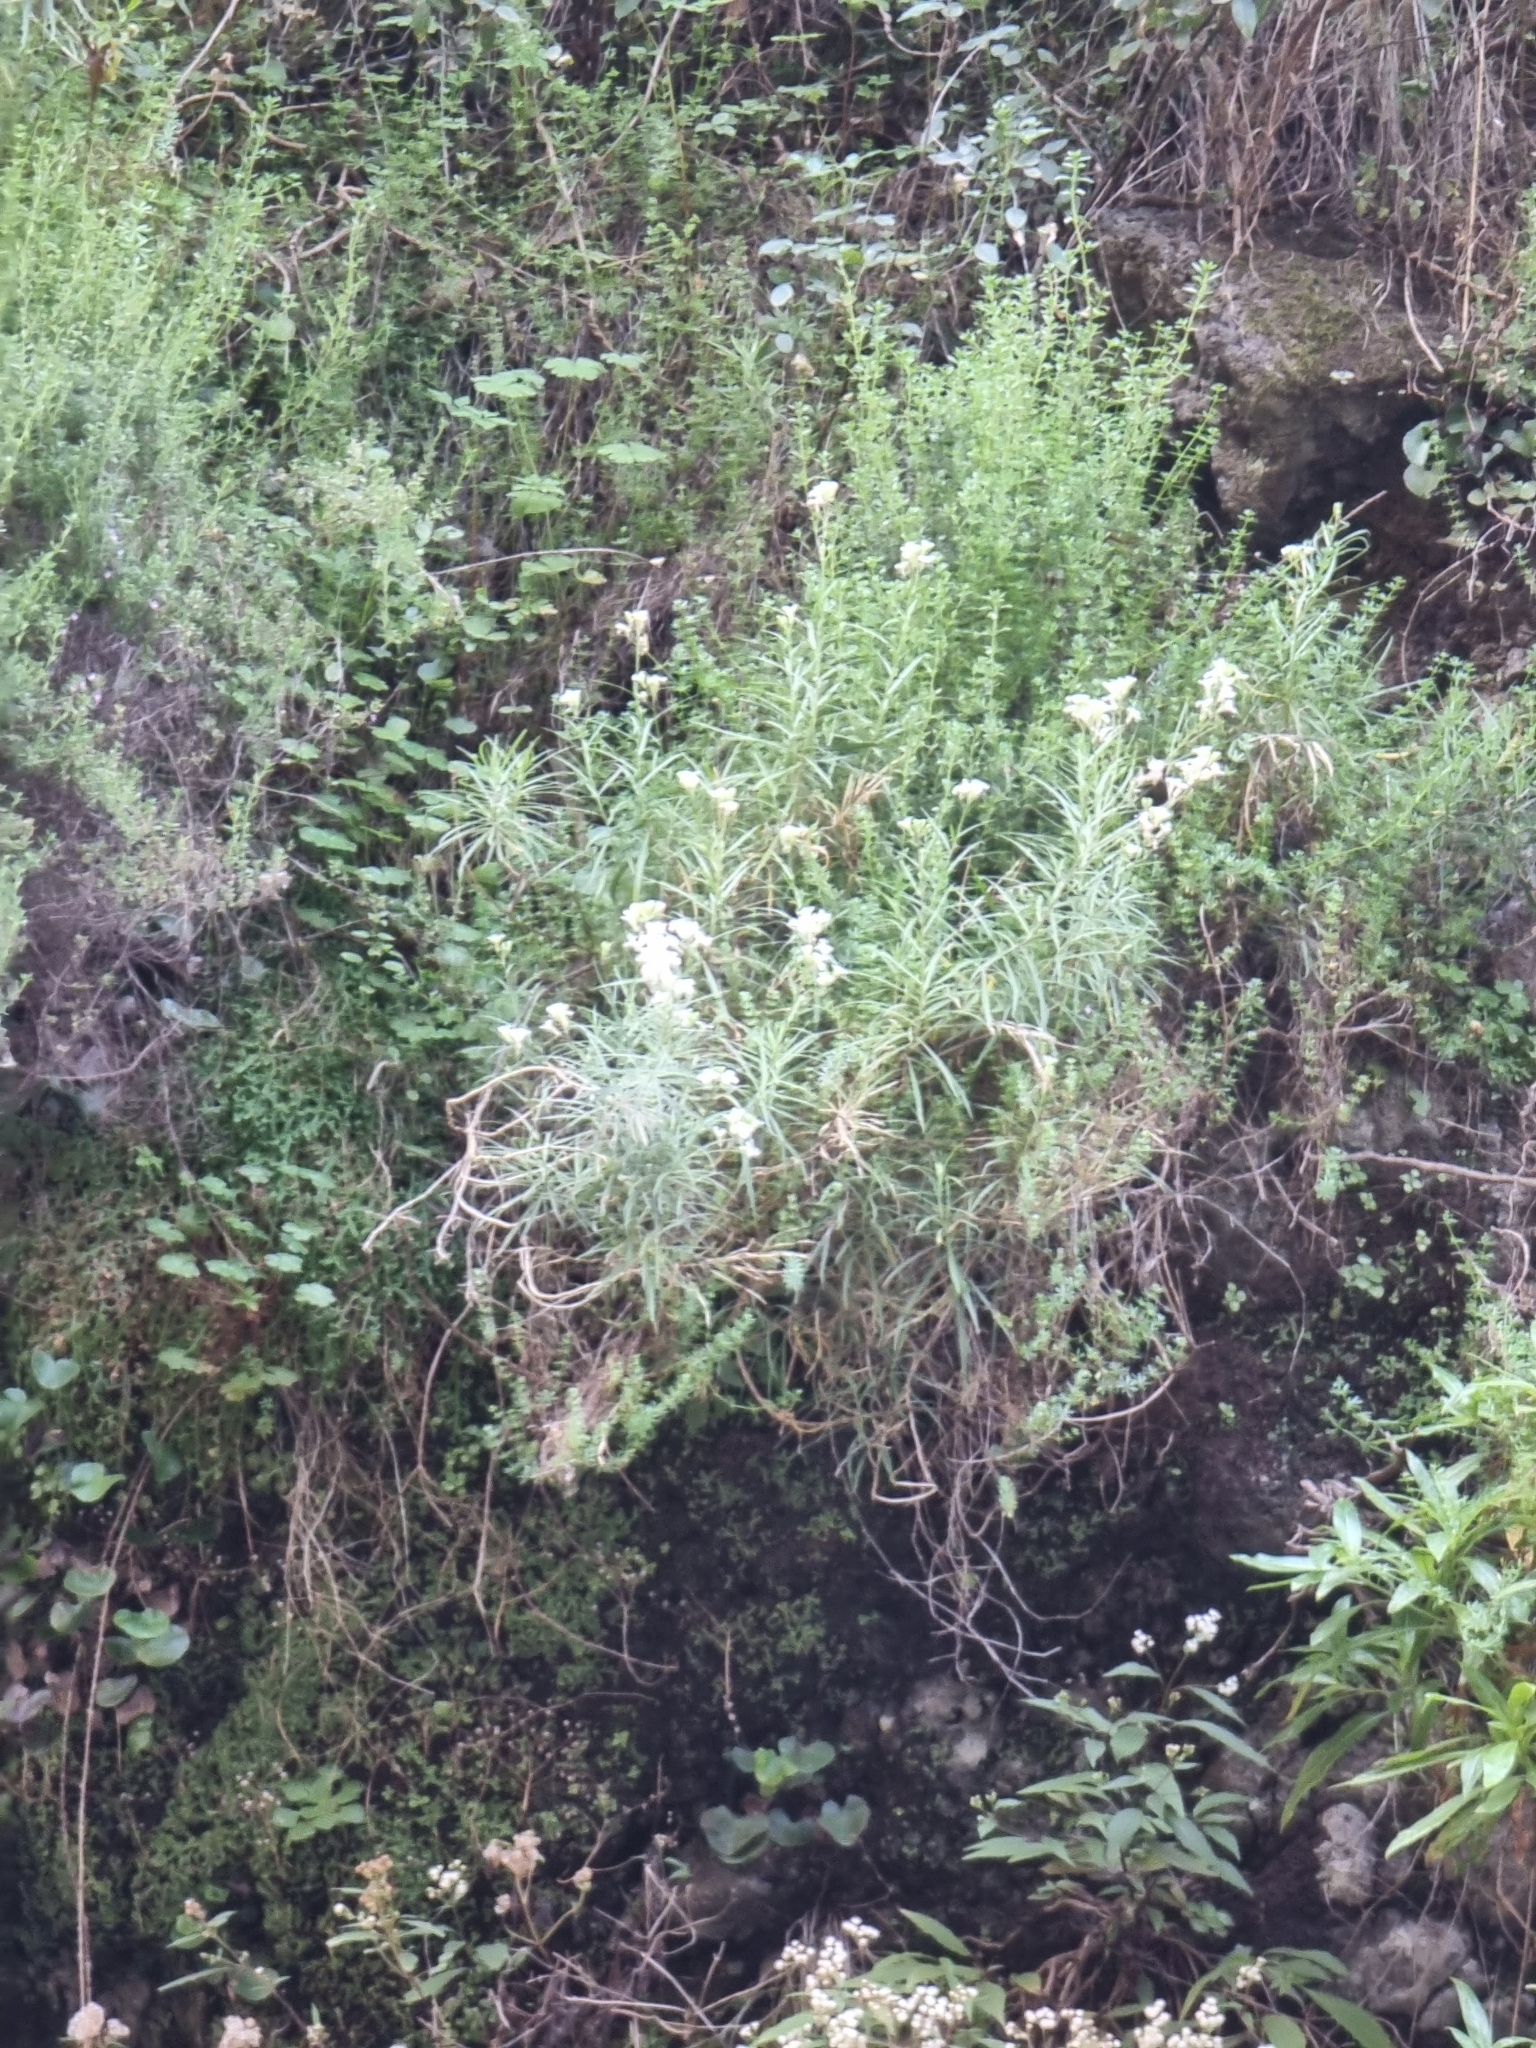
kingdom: Plantae
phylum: Tracheophyta
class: Magnoliopsida
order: Brassicales
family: Brassicaceae
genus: Erysimum
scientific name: Erysimum bicolor
